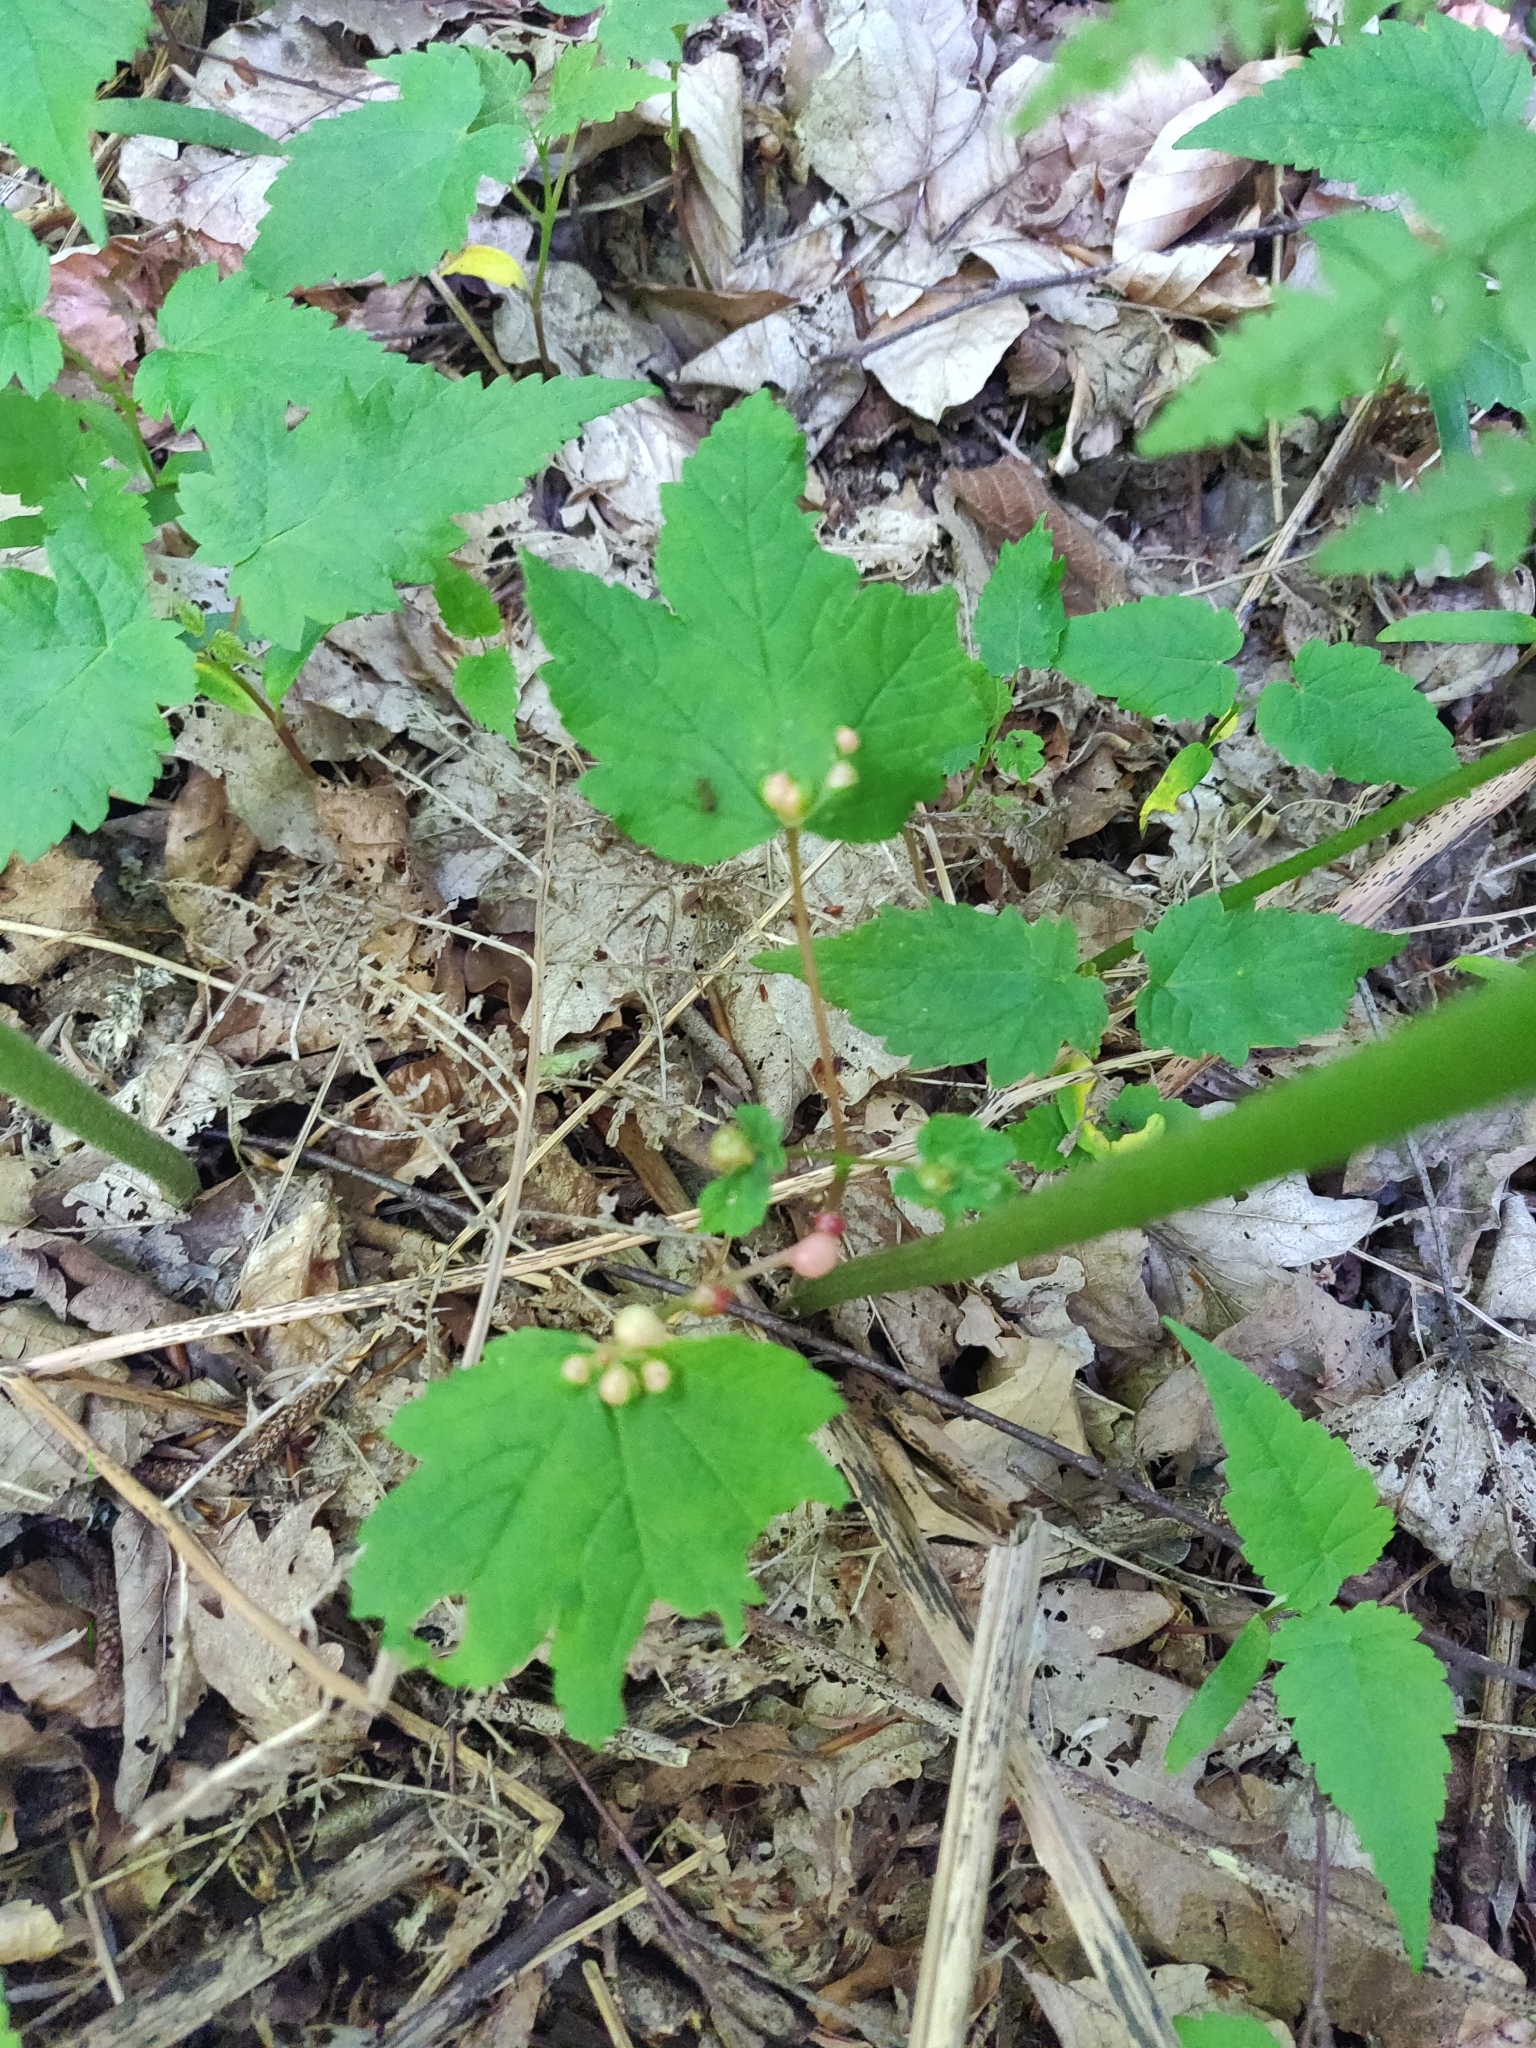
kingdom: Animalia
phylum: Arthropoda
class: Insecta
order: Hymenoptera
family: Cynipidae
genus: Pediaspis
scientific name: Pediaspis aceris
